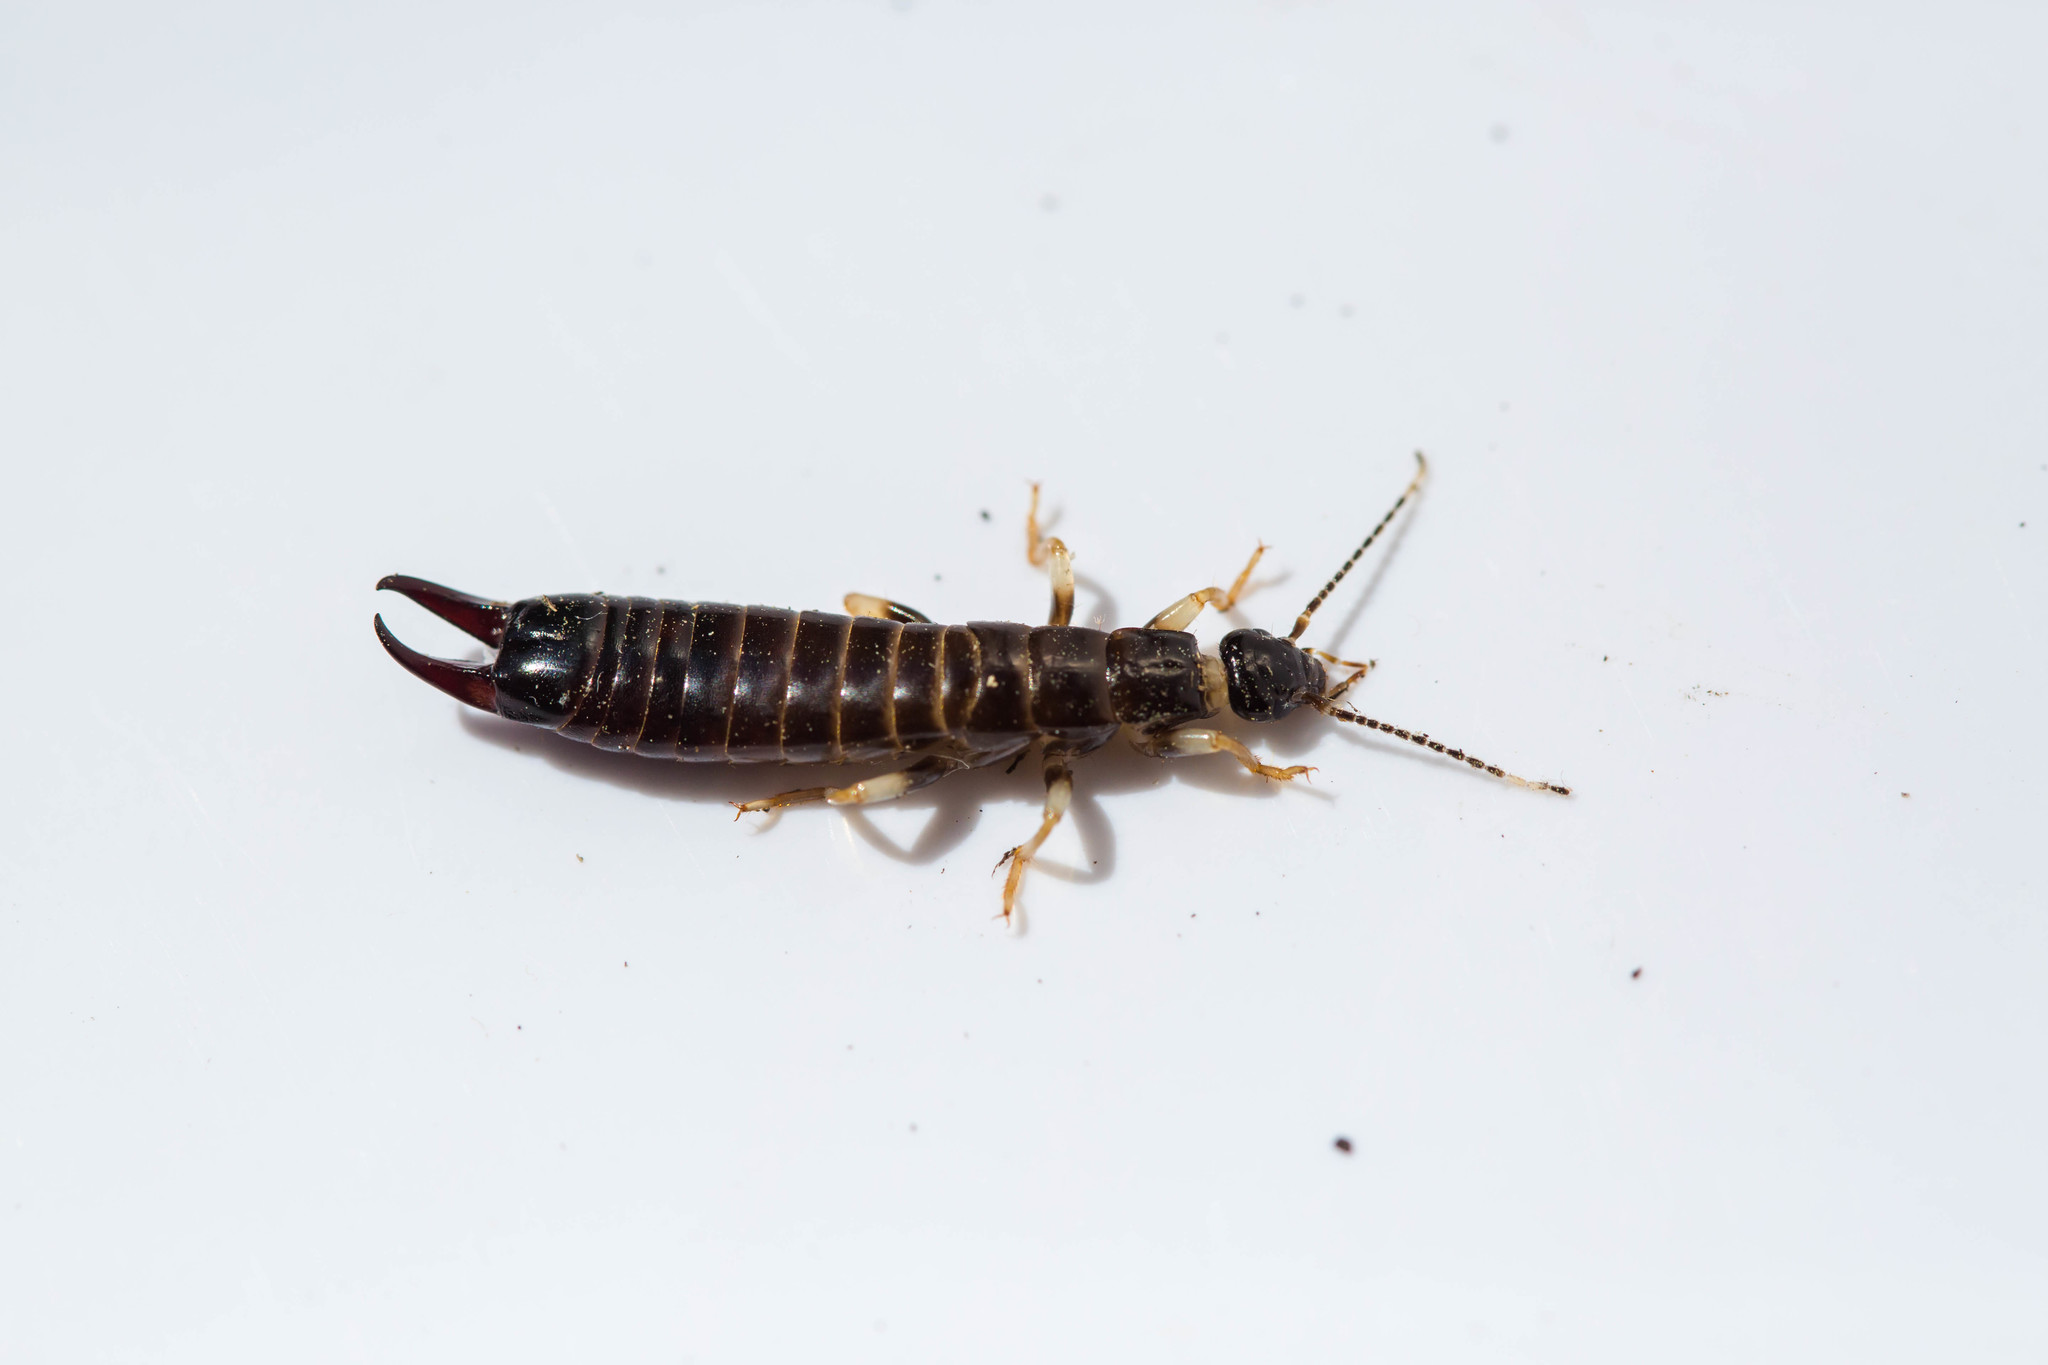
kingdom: Animalia
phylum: Arthropoda
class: Insecta
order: Dermaptera
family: Anisolabididae
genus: Euborellia
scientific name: Euborellia annulipes
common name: Ringlegged earwig
